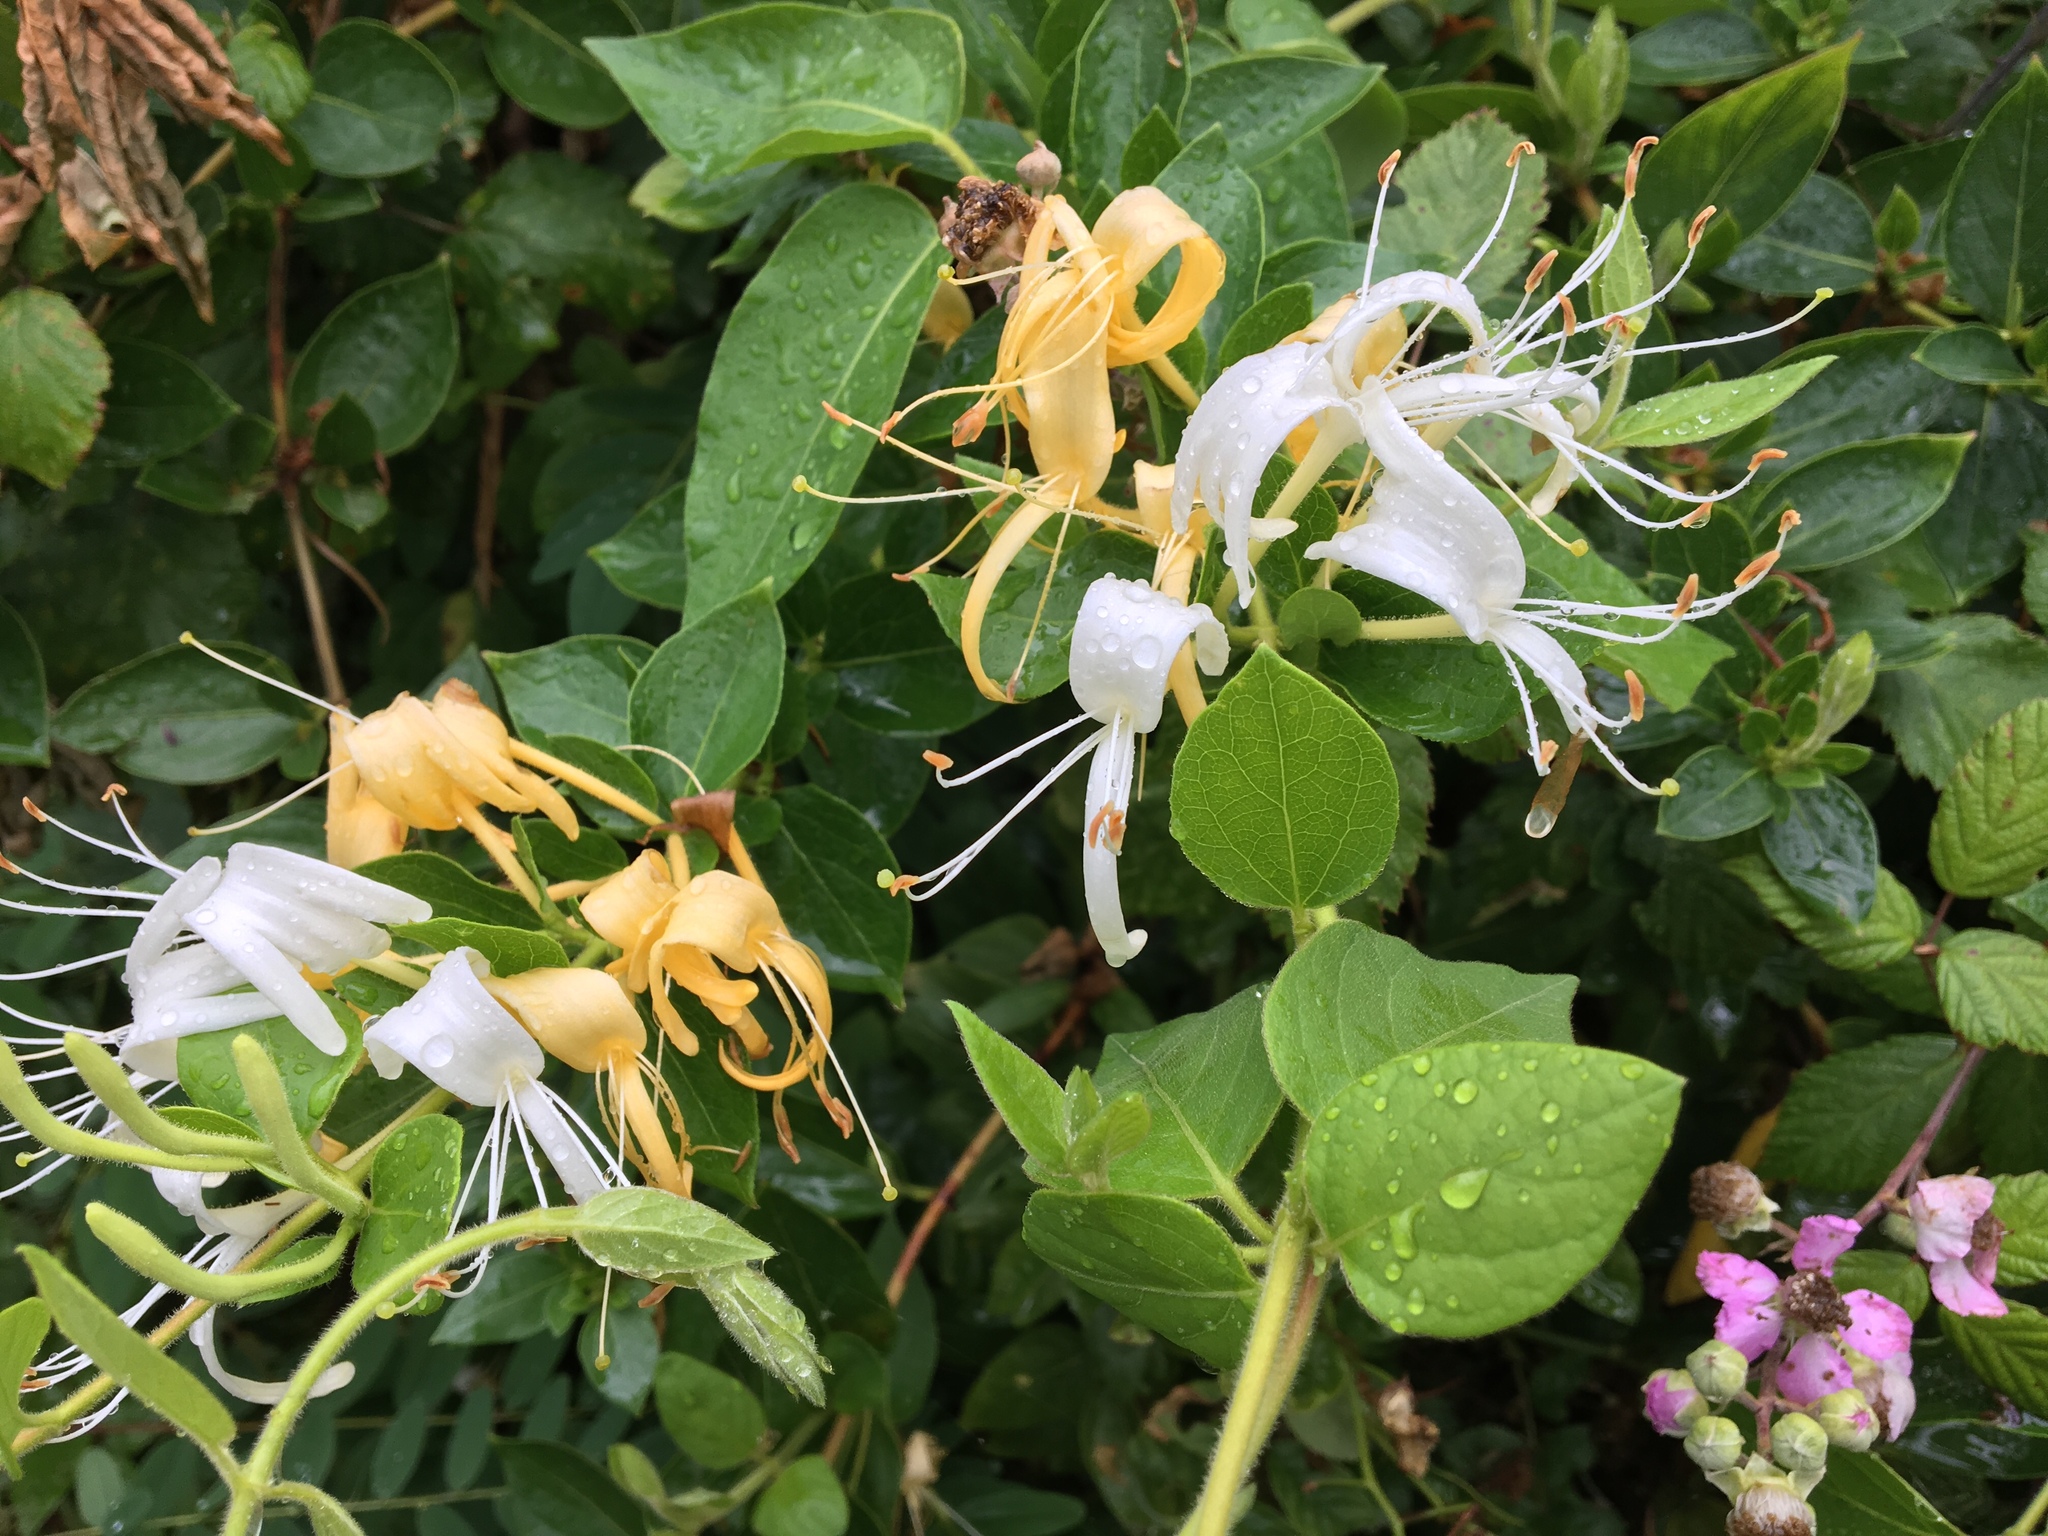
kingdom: Plantae
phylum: Tracheophyta
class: Magnoliopsida
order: Dipsacales
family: Caprifoliaceae
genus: Lonicera
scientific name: Lonicera japonica
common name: Japanese honeysuckle
